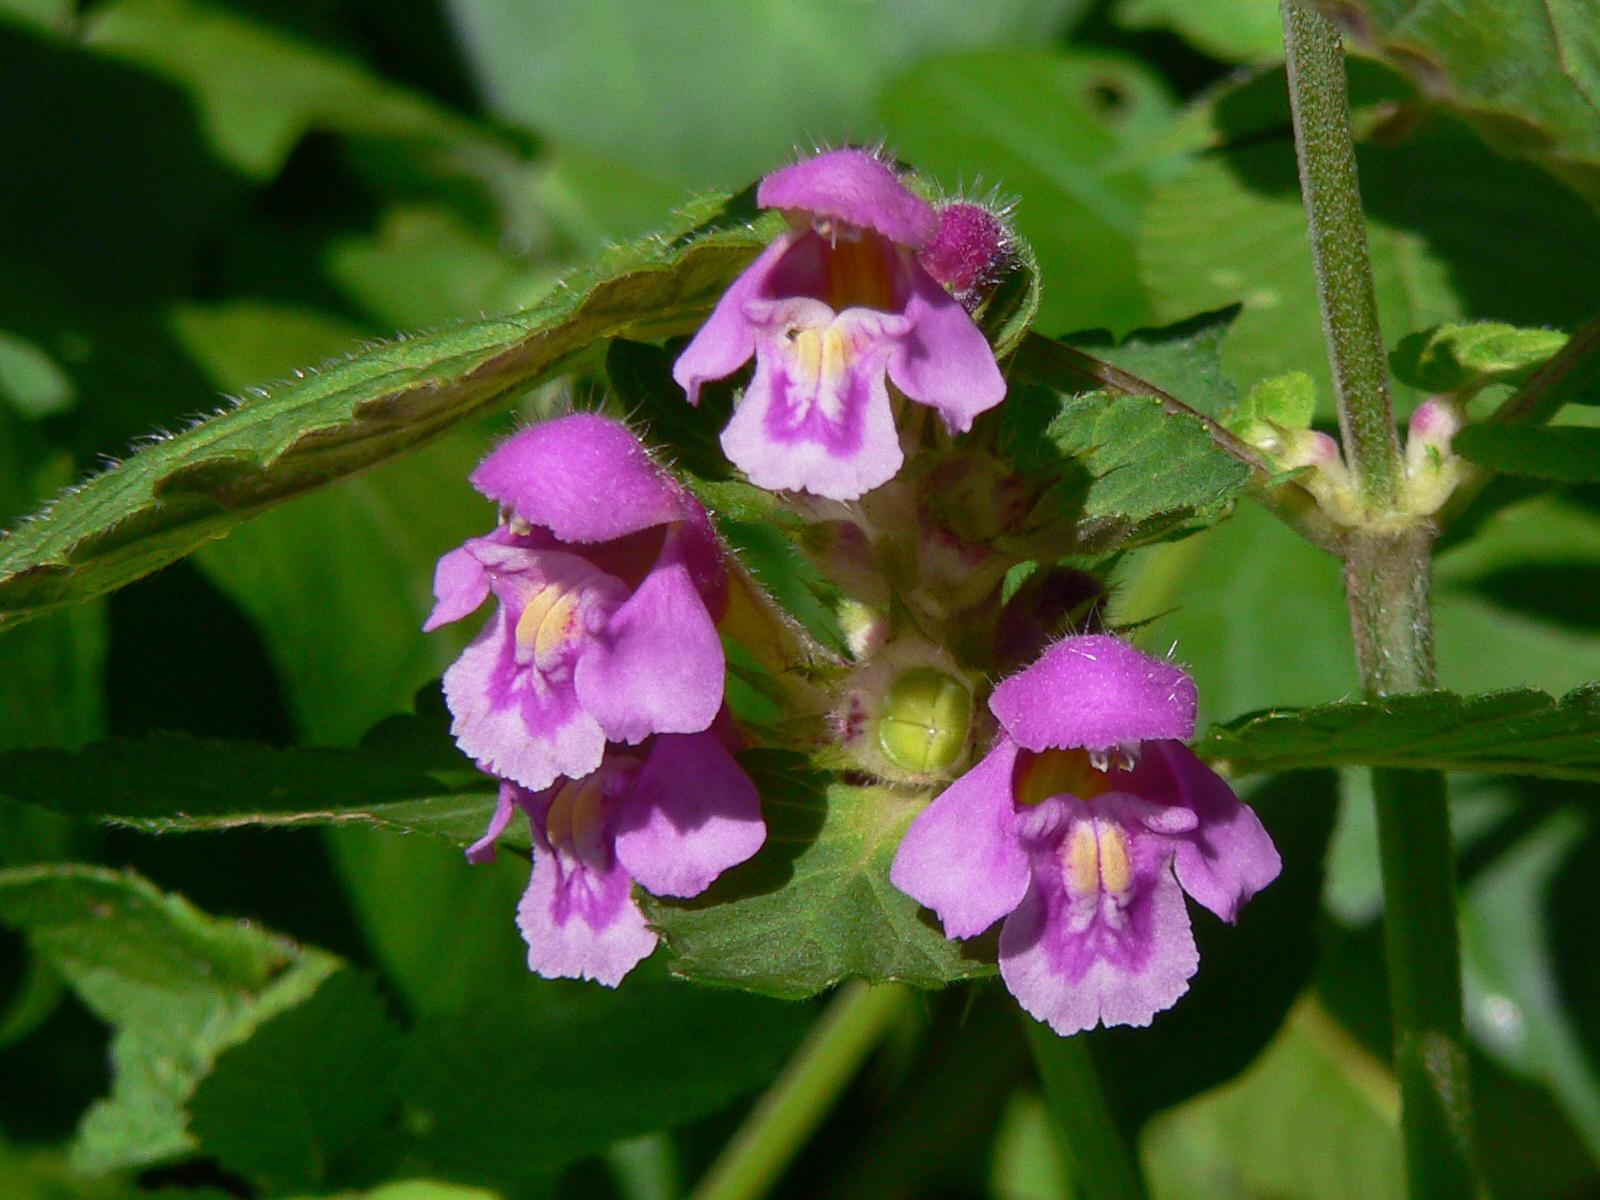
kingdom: Plantae
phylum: Tracheophyta
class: Magnoliopsida
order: Lamiales
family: Lamiaceae
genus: Galeopsis
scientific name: Galeopsis pubescens
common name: Downy hemp-nettle
